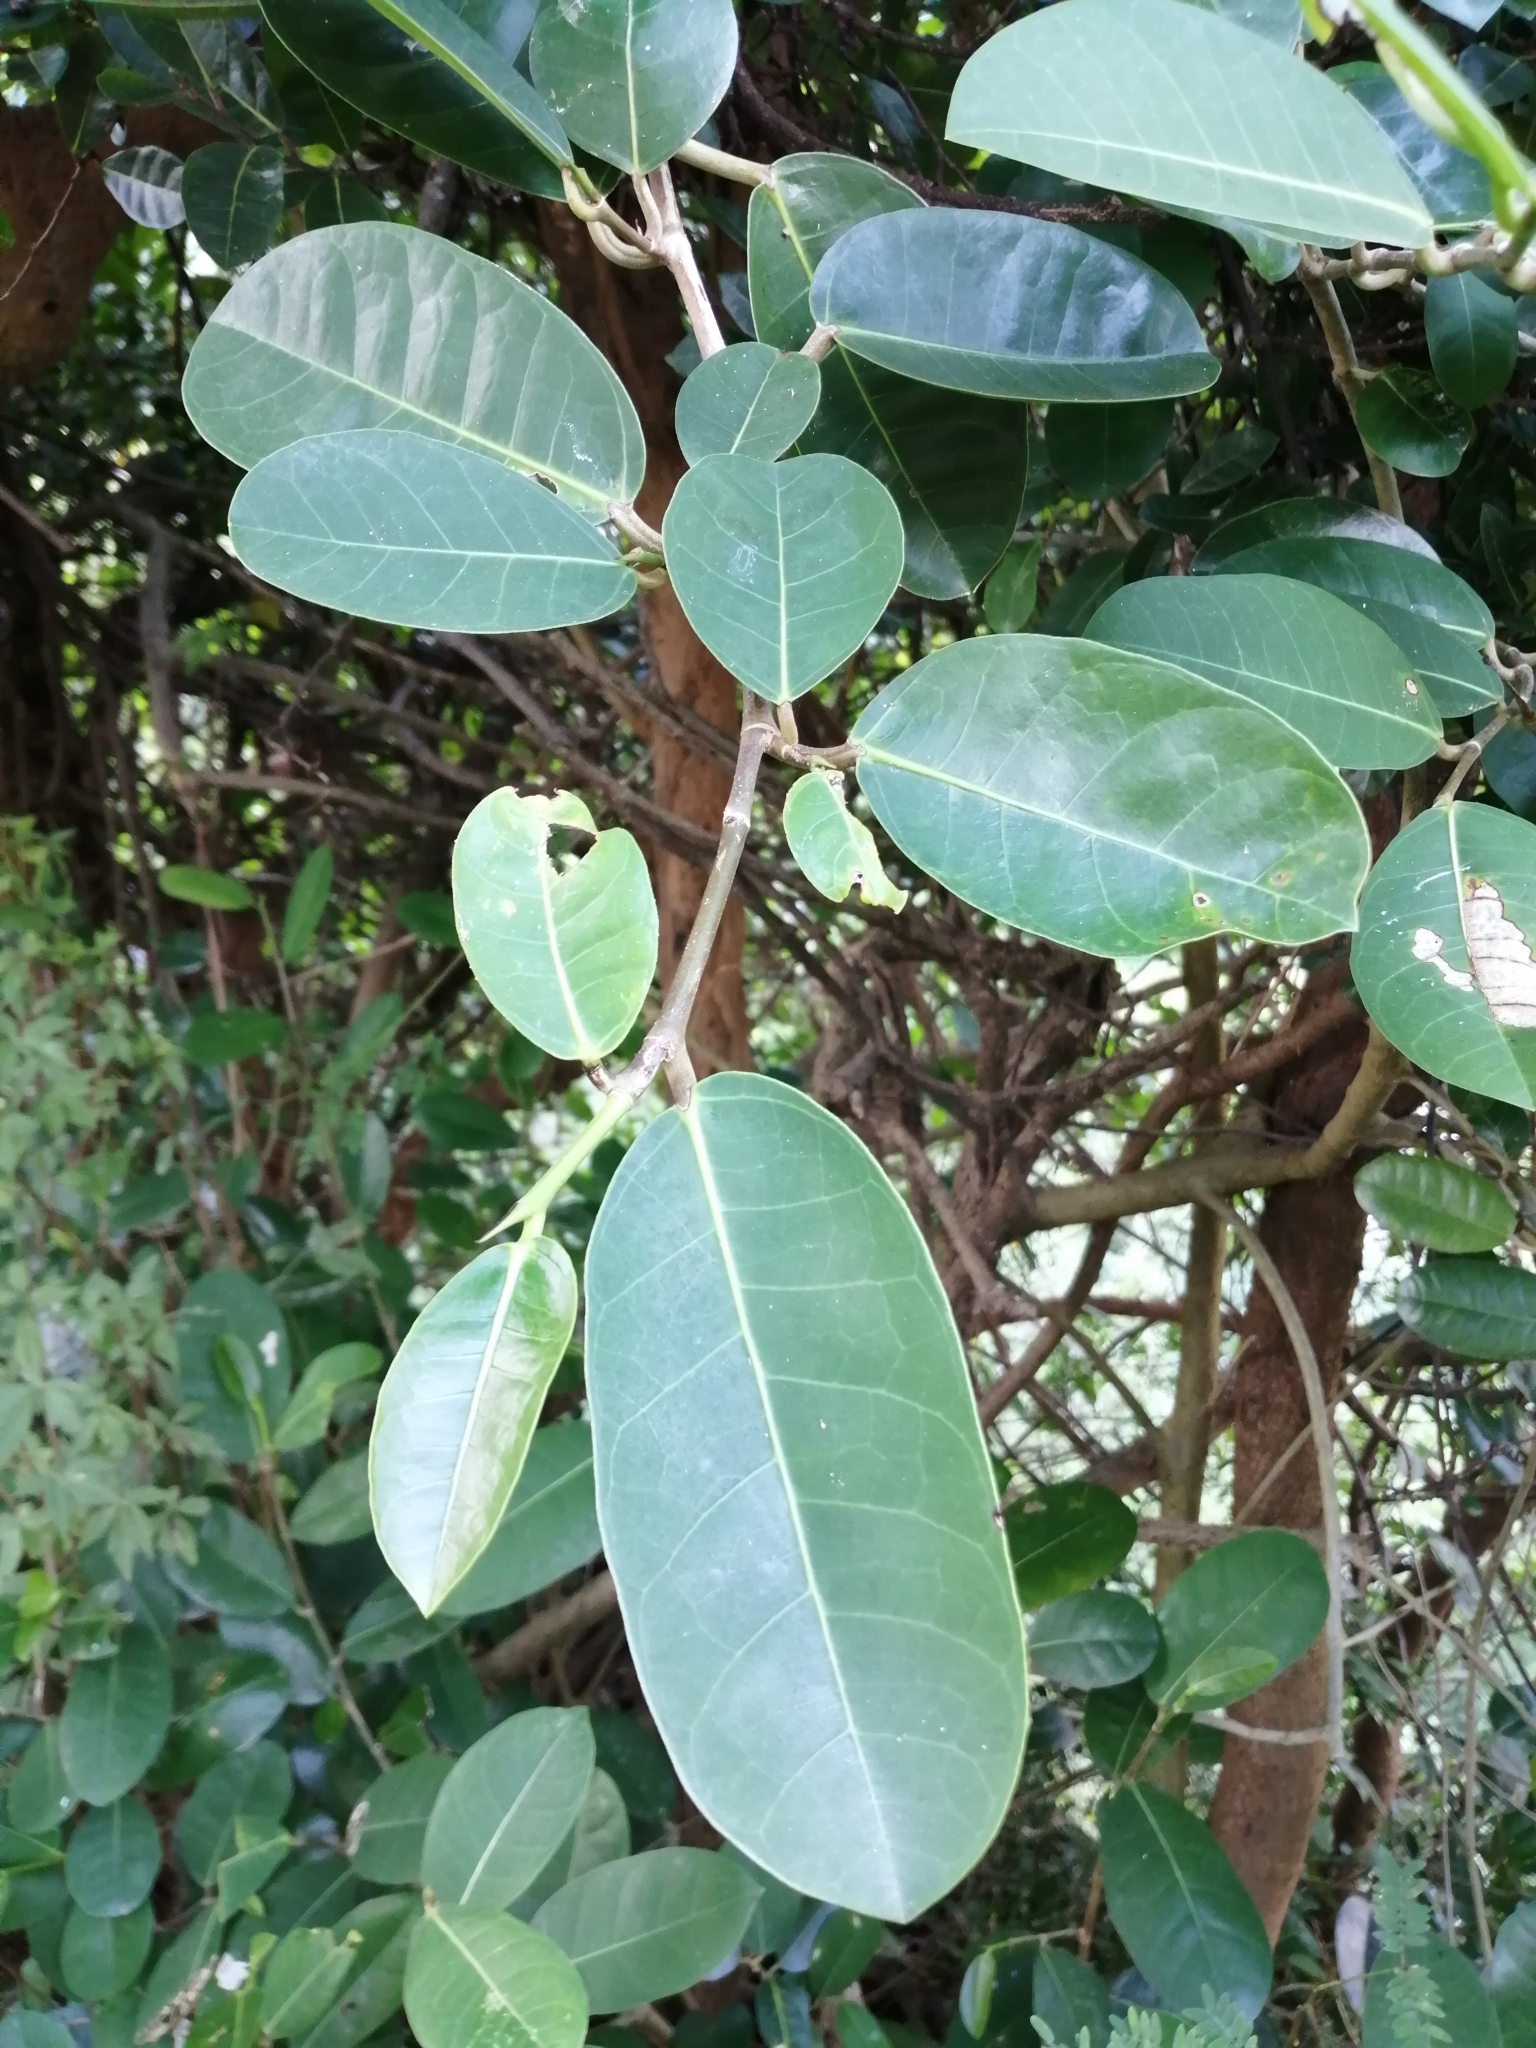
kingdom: Plantae
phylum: Tracheophyta
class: Magnoliopsida
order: Rosales
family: Moraceae
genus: Ficus
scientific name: Ficus tinctoria
